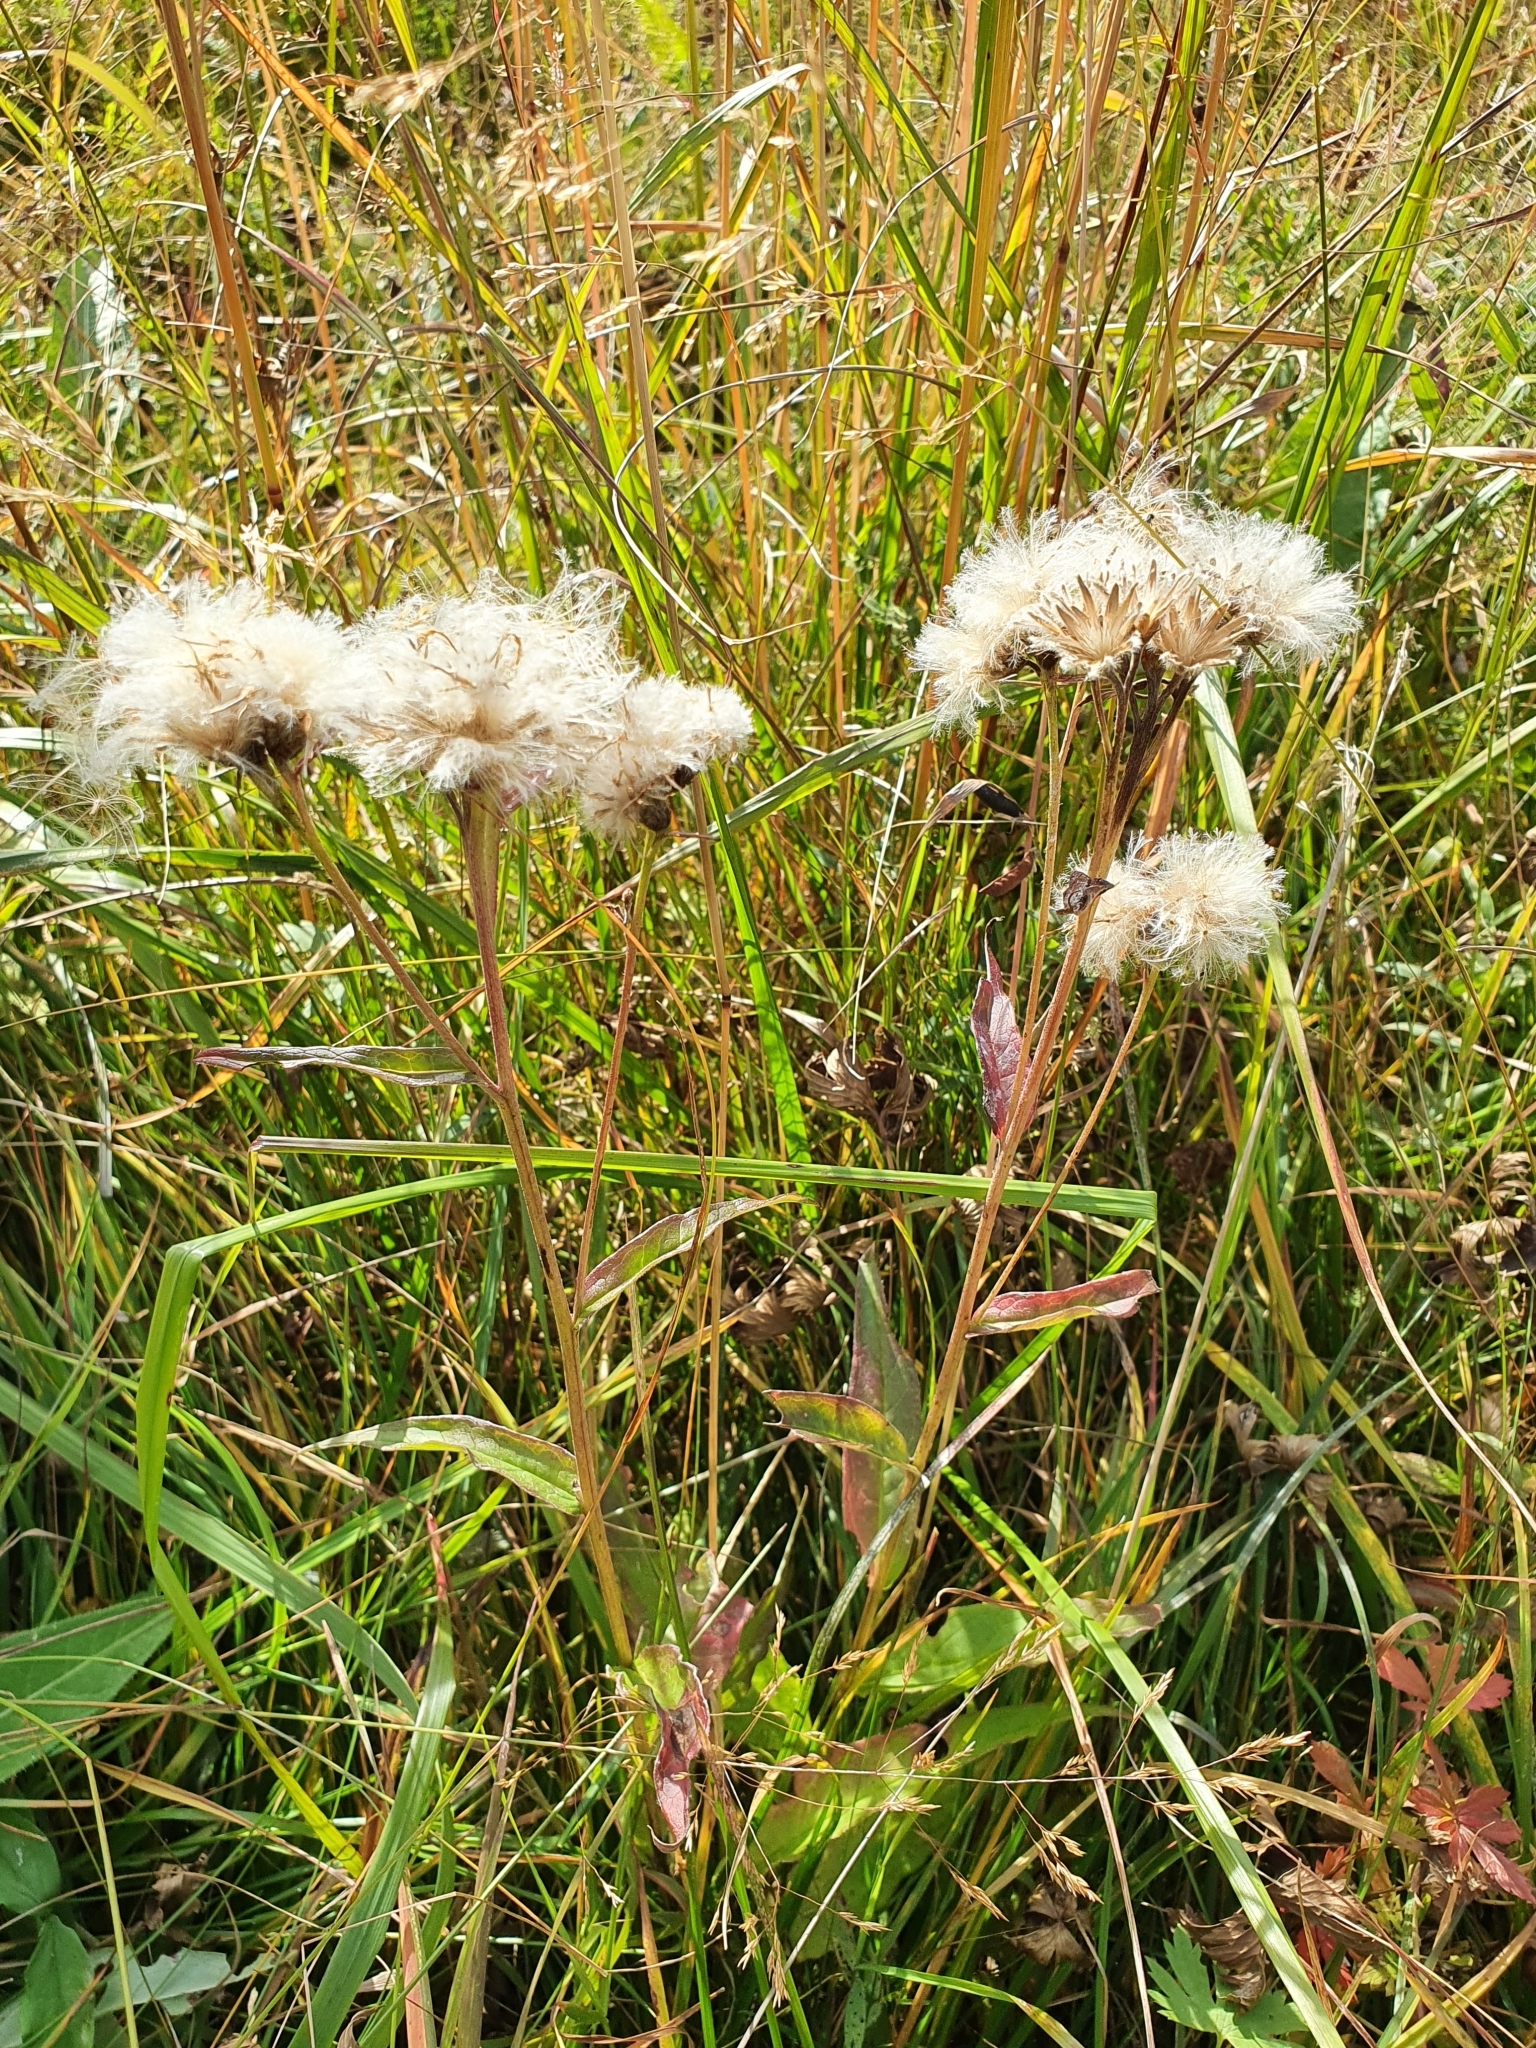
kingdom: Plantae
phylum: Tracheophyta
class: Magnoliopsida
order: Asterales
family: Asteraceae
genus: Saussurea
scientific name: Saussurea alpina
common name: Alpine saw-wort
